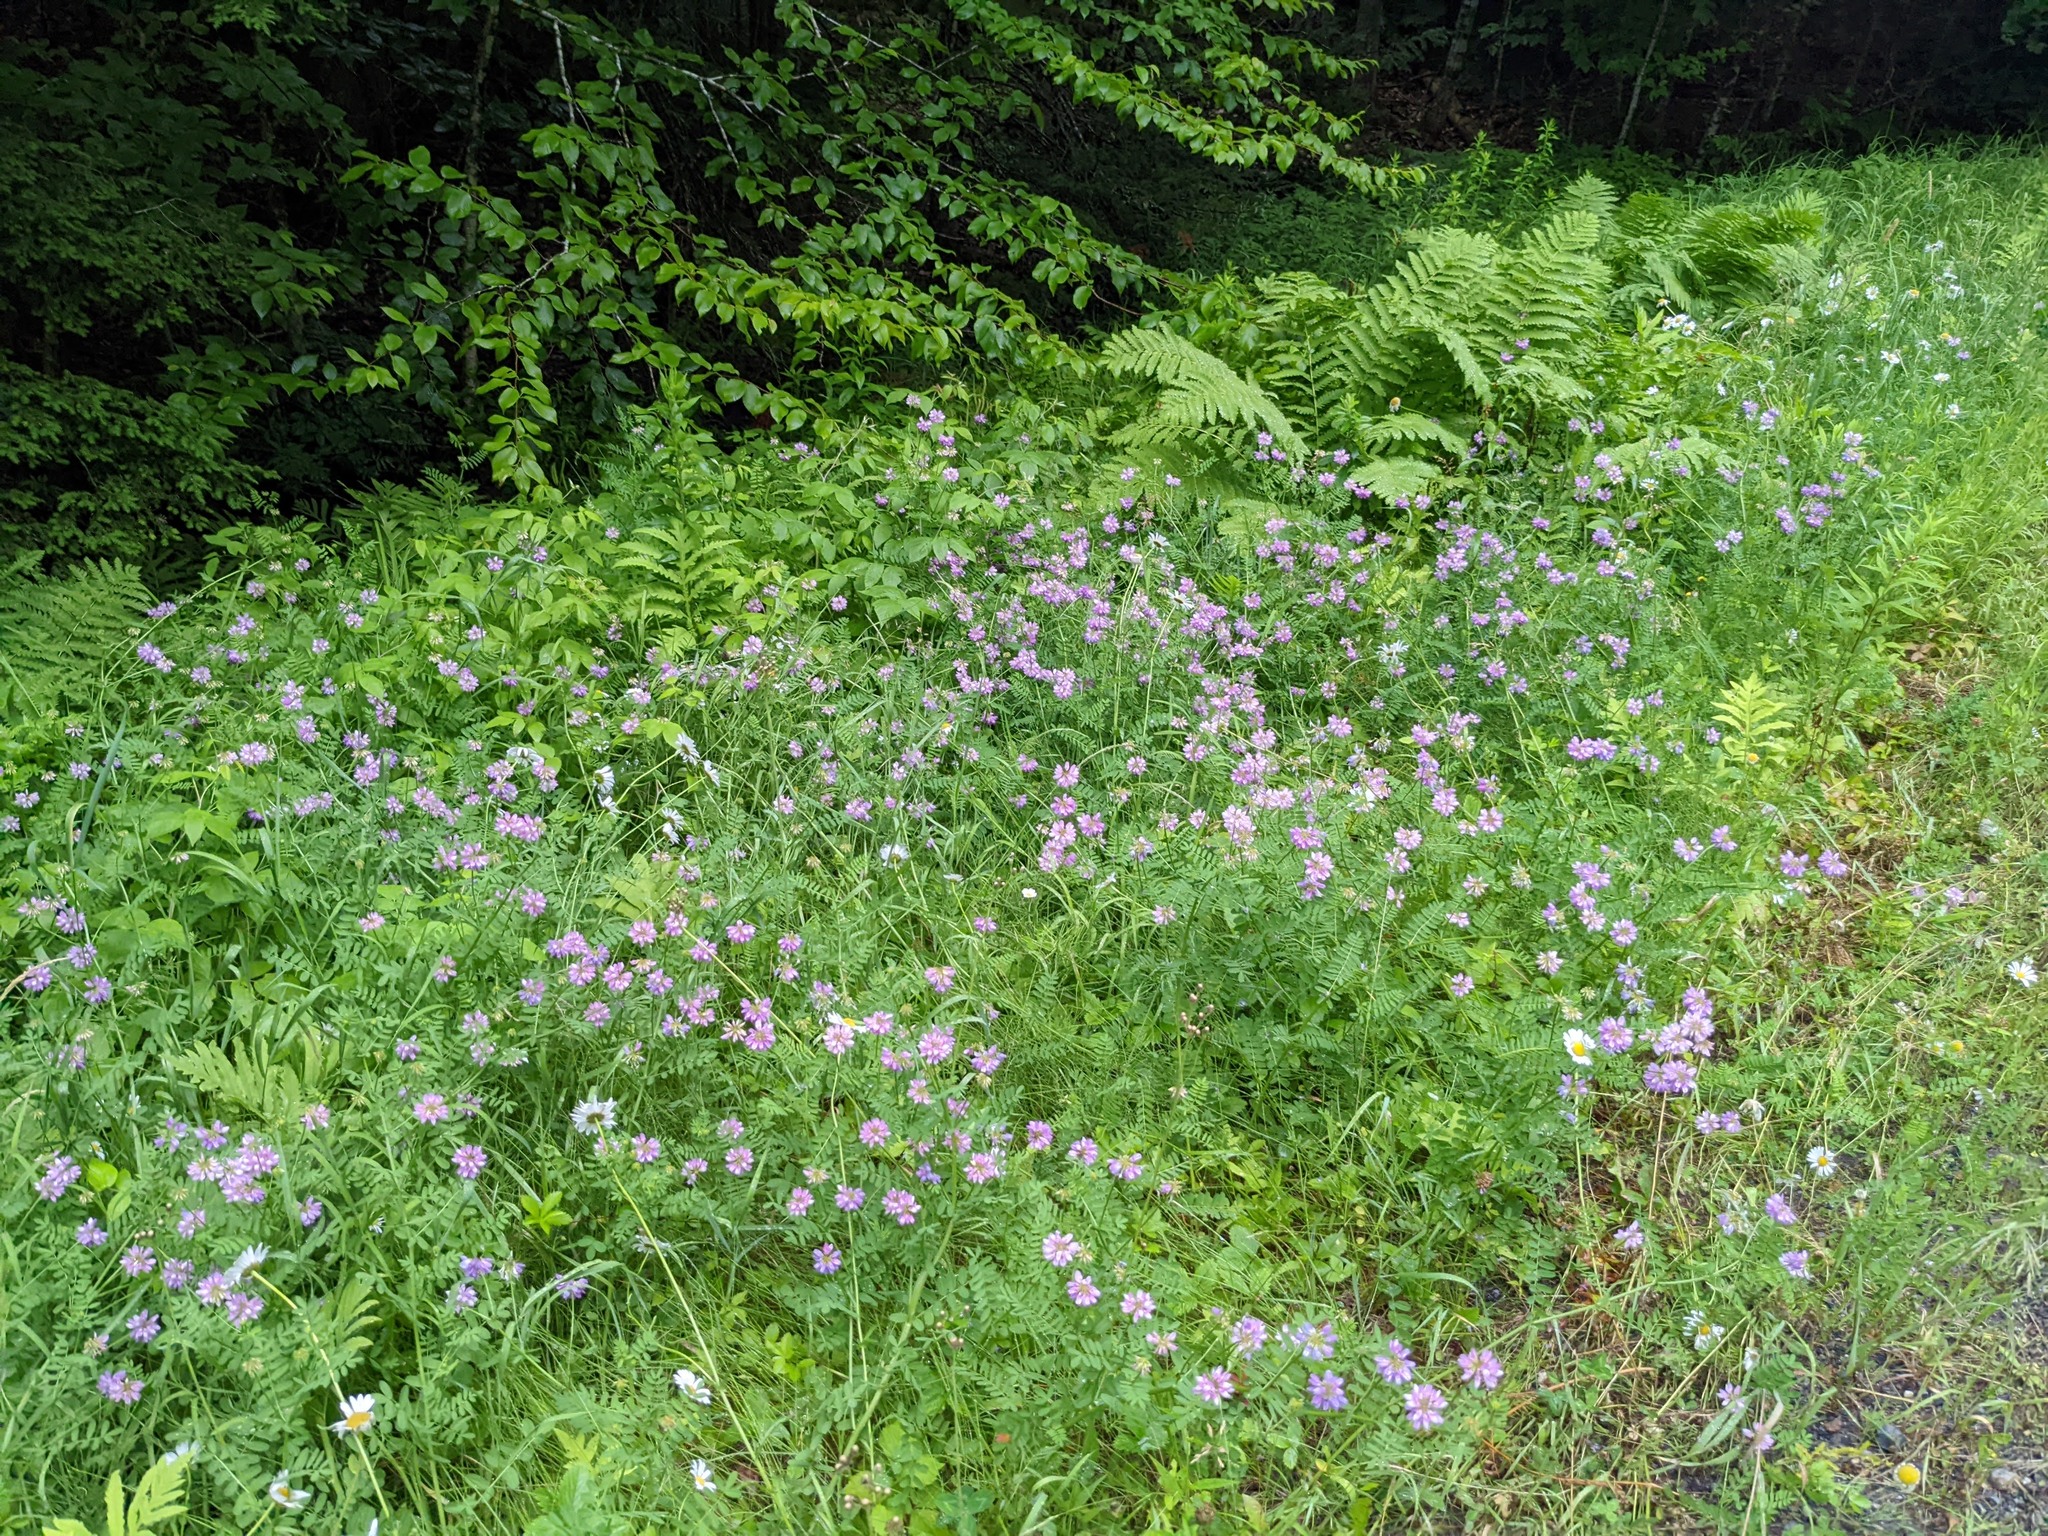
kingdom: Plantae
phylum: Tracheophyta
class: Magnoliopsida
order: Fabales
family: Fabaceae
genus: Coronilla
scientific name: Coronilla varia
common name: Crownvetch
